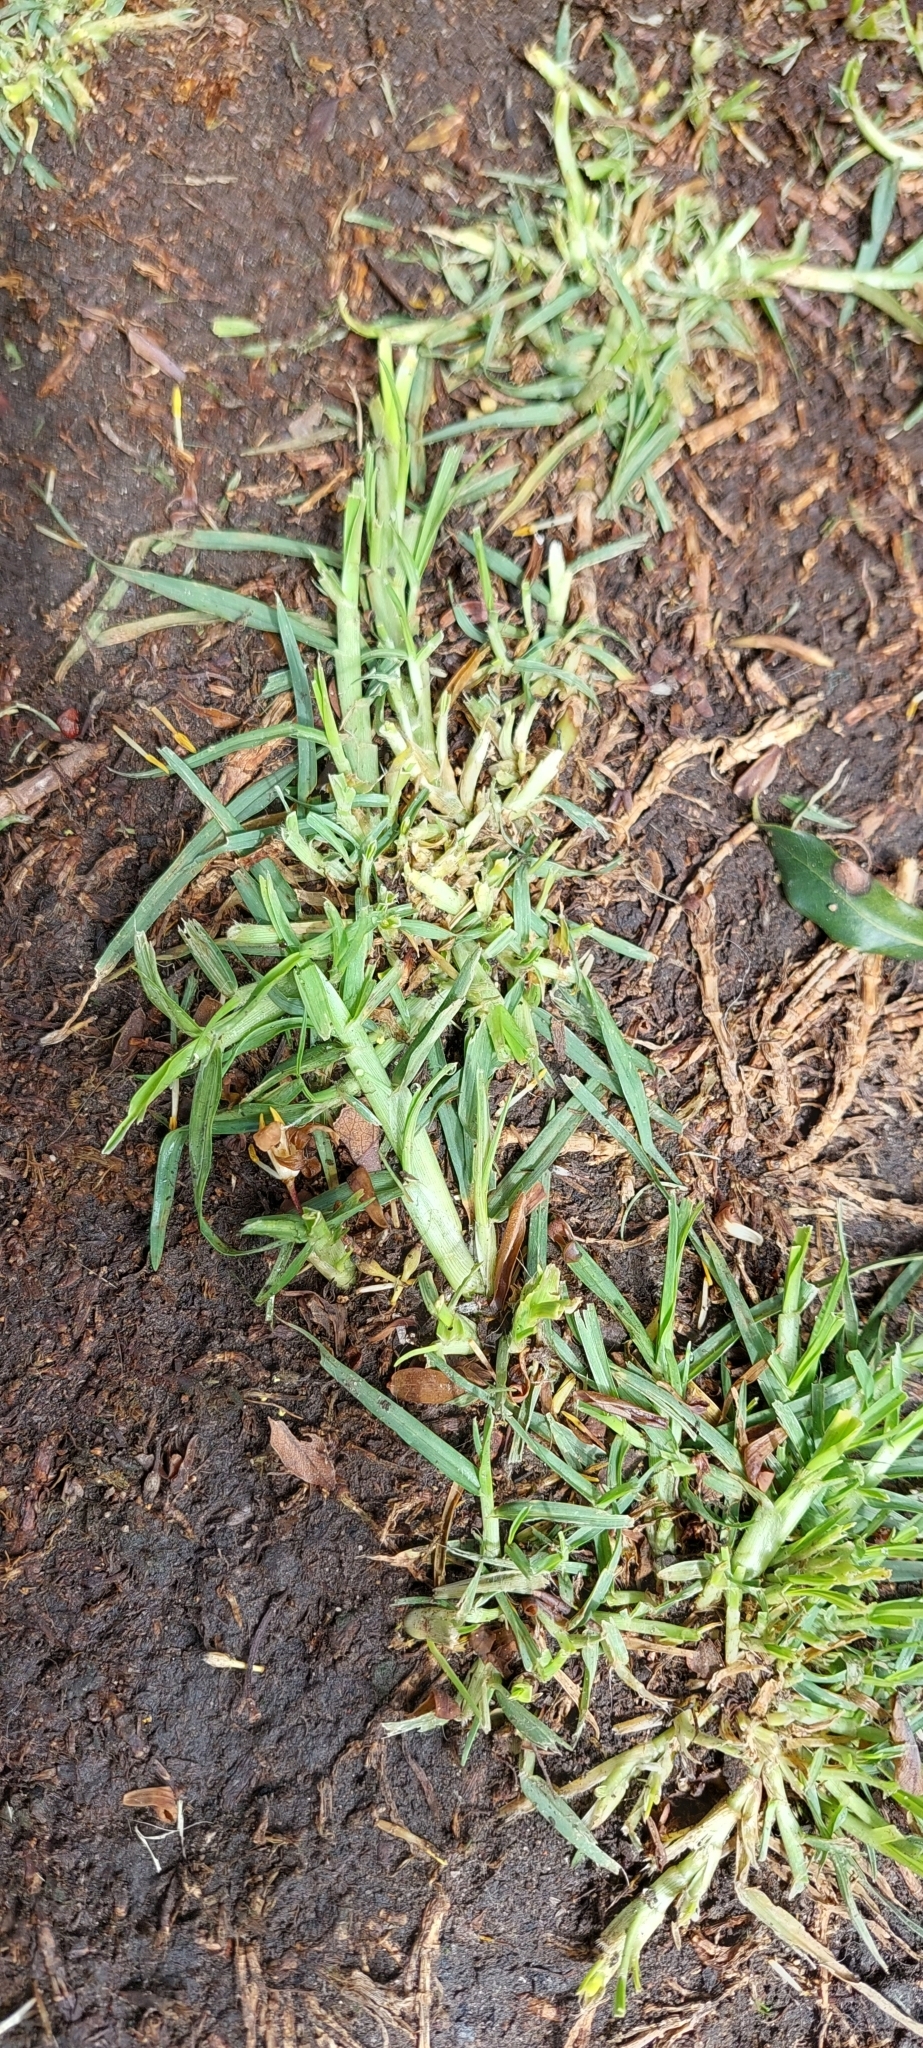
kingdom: Plantae
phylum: Tracheophyta
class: Liliopsida
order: Poales
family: Poaceae
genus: Cenchrus
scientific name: Cenchrus clandestinus
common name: Kikuyugrass
